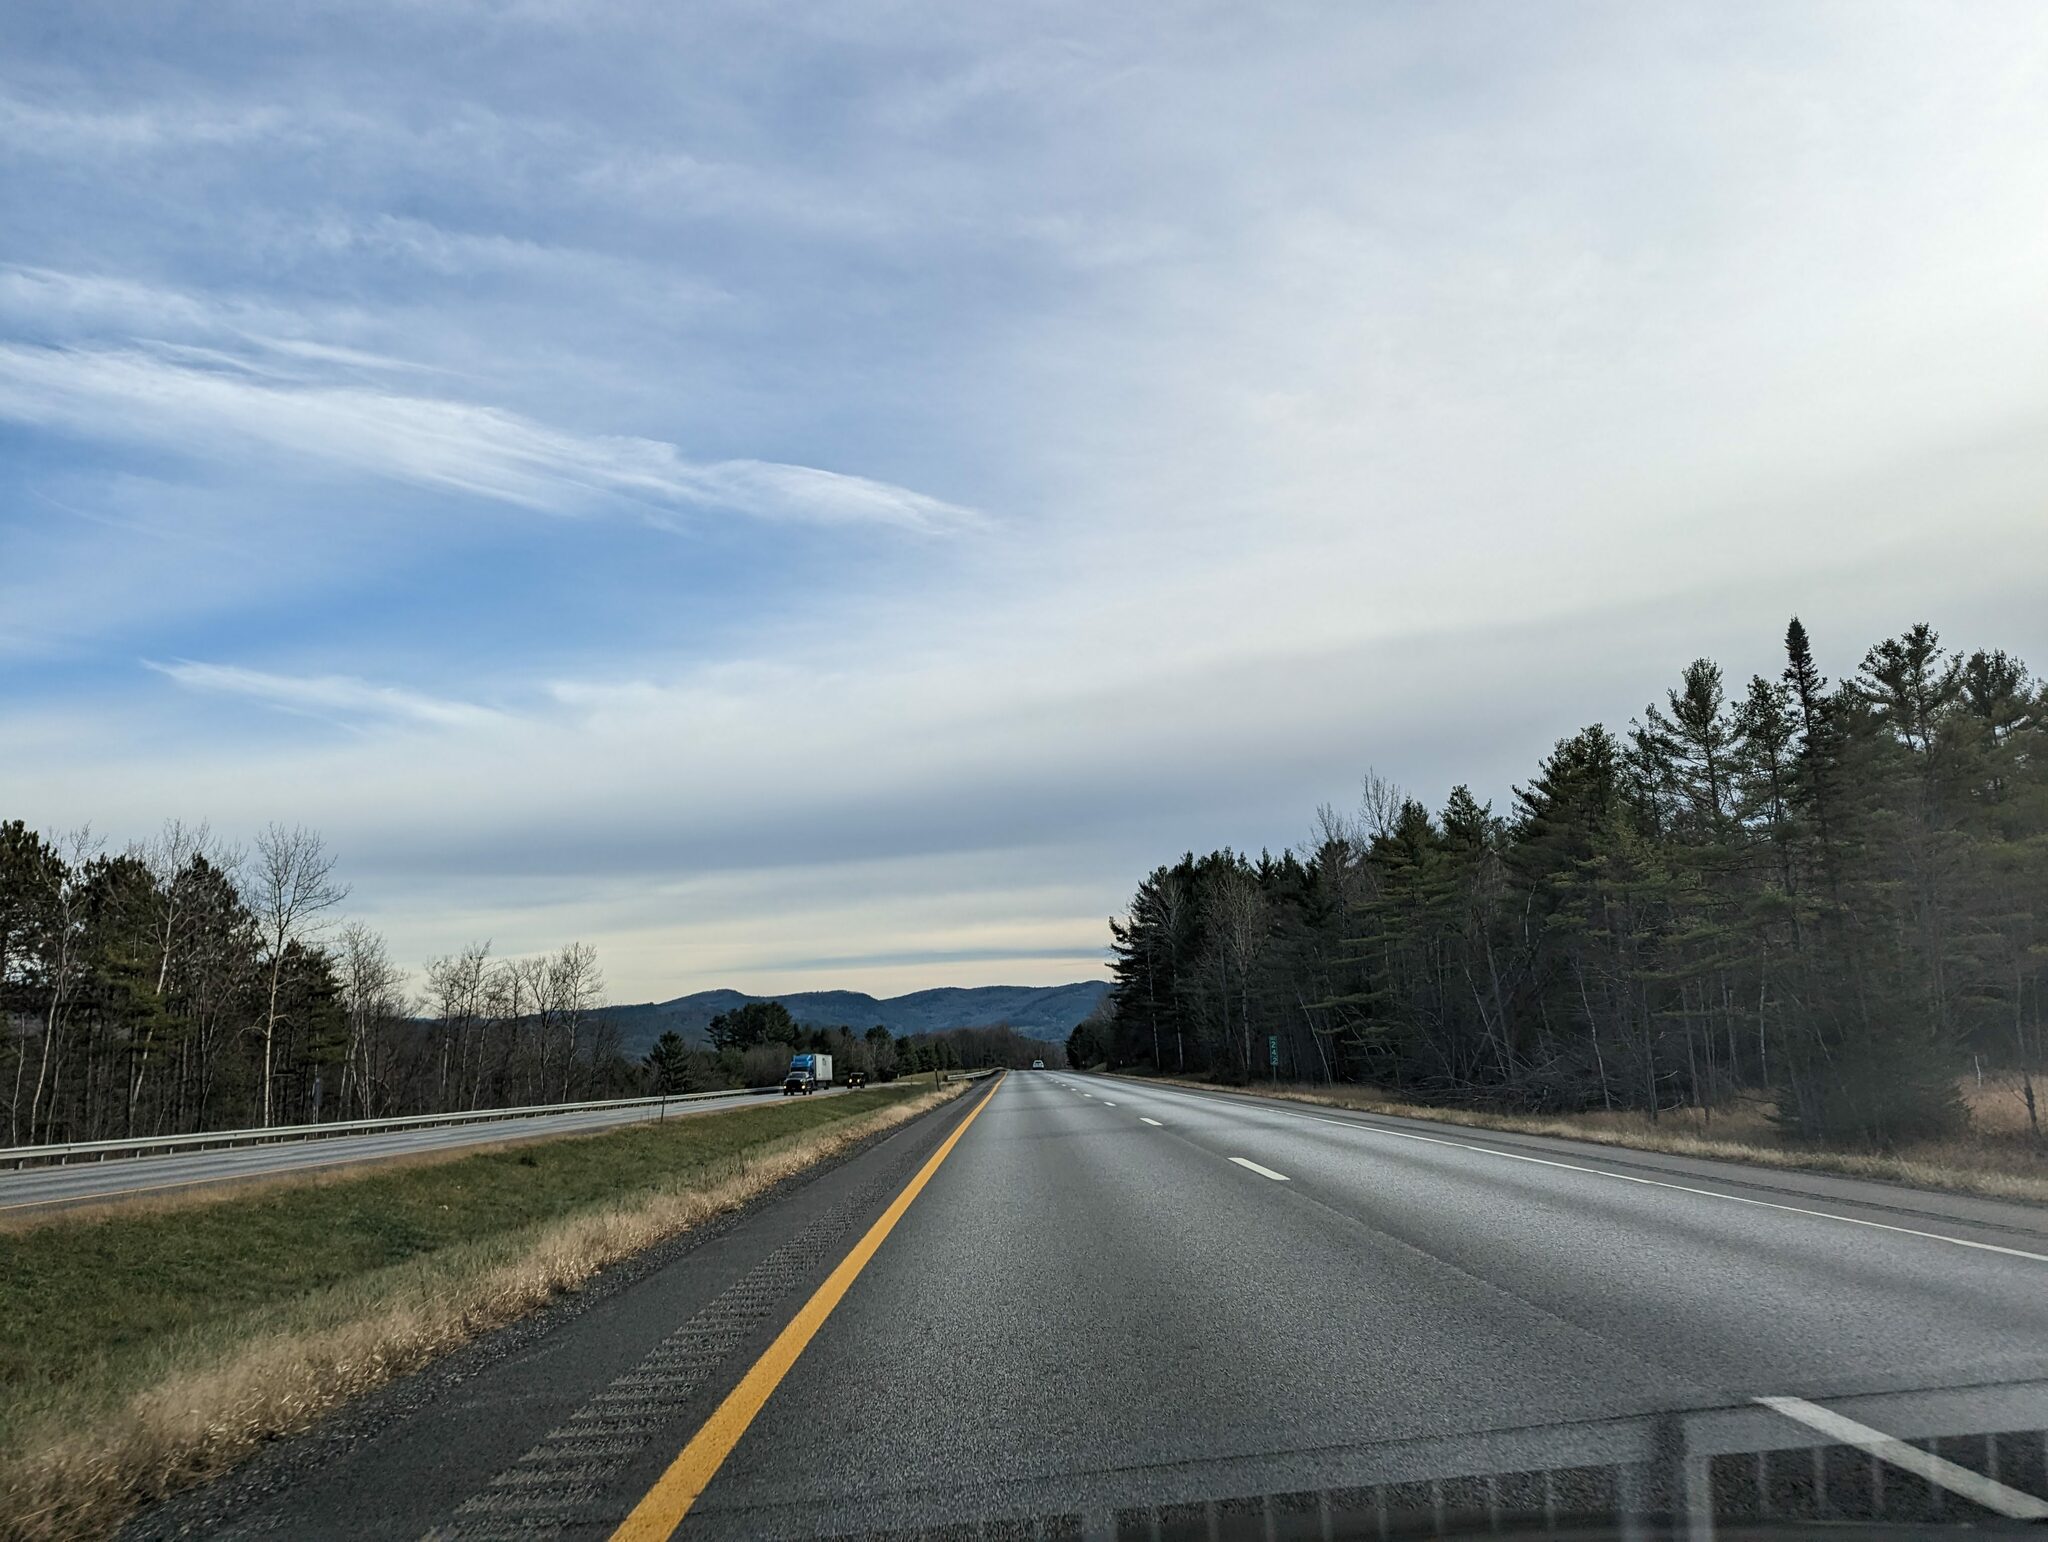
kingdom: Plantae
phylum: Tracheophyta
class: Pinopsida
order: Pinales
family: Pinaceae
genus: Pinus
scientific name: Pinus strobus
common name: Weymouth pine
